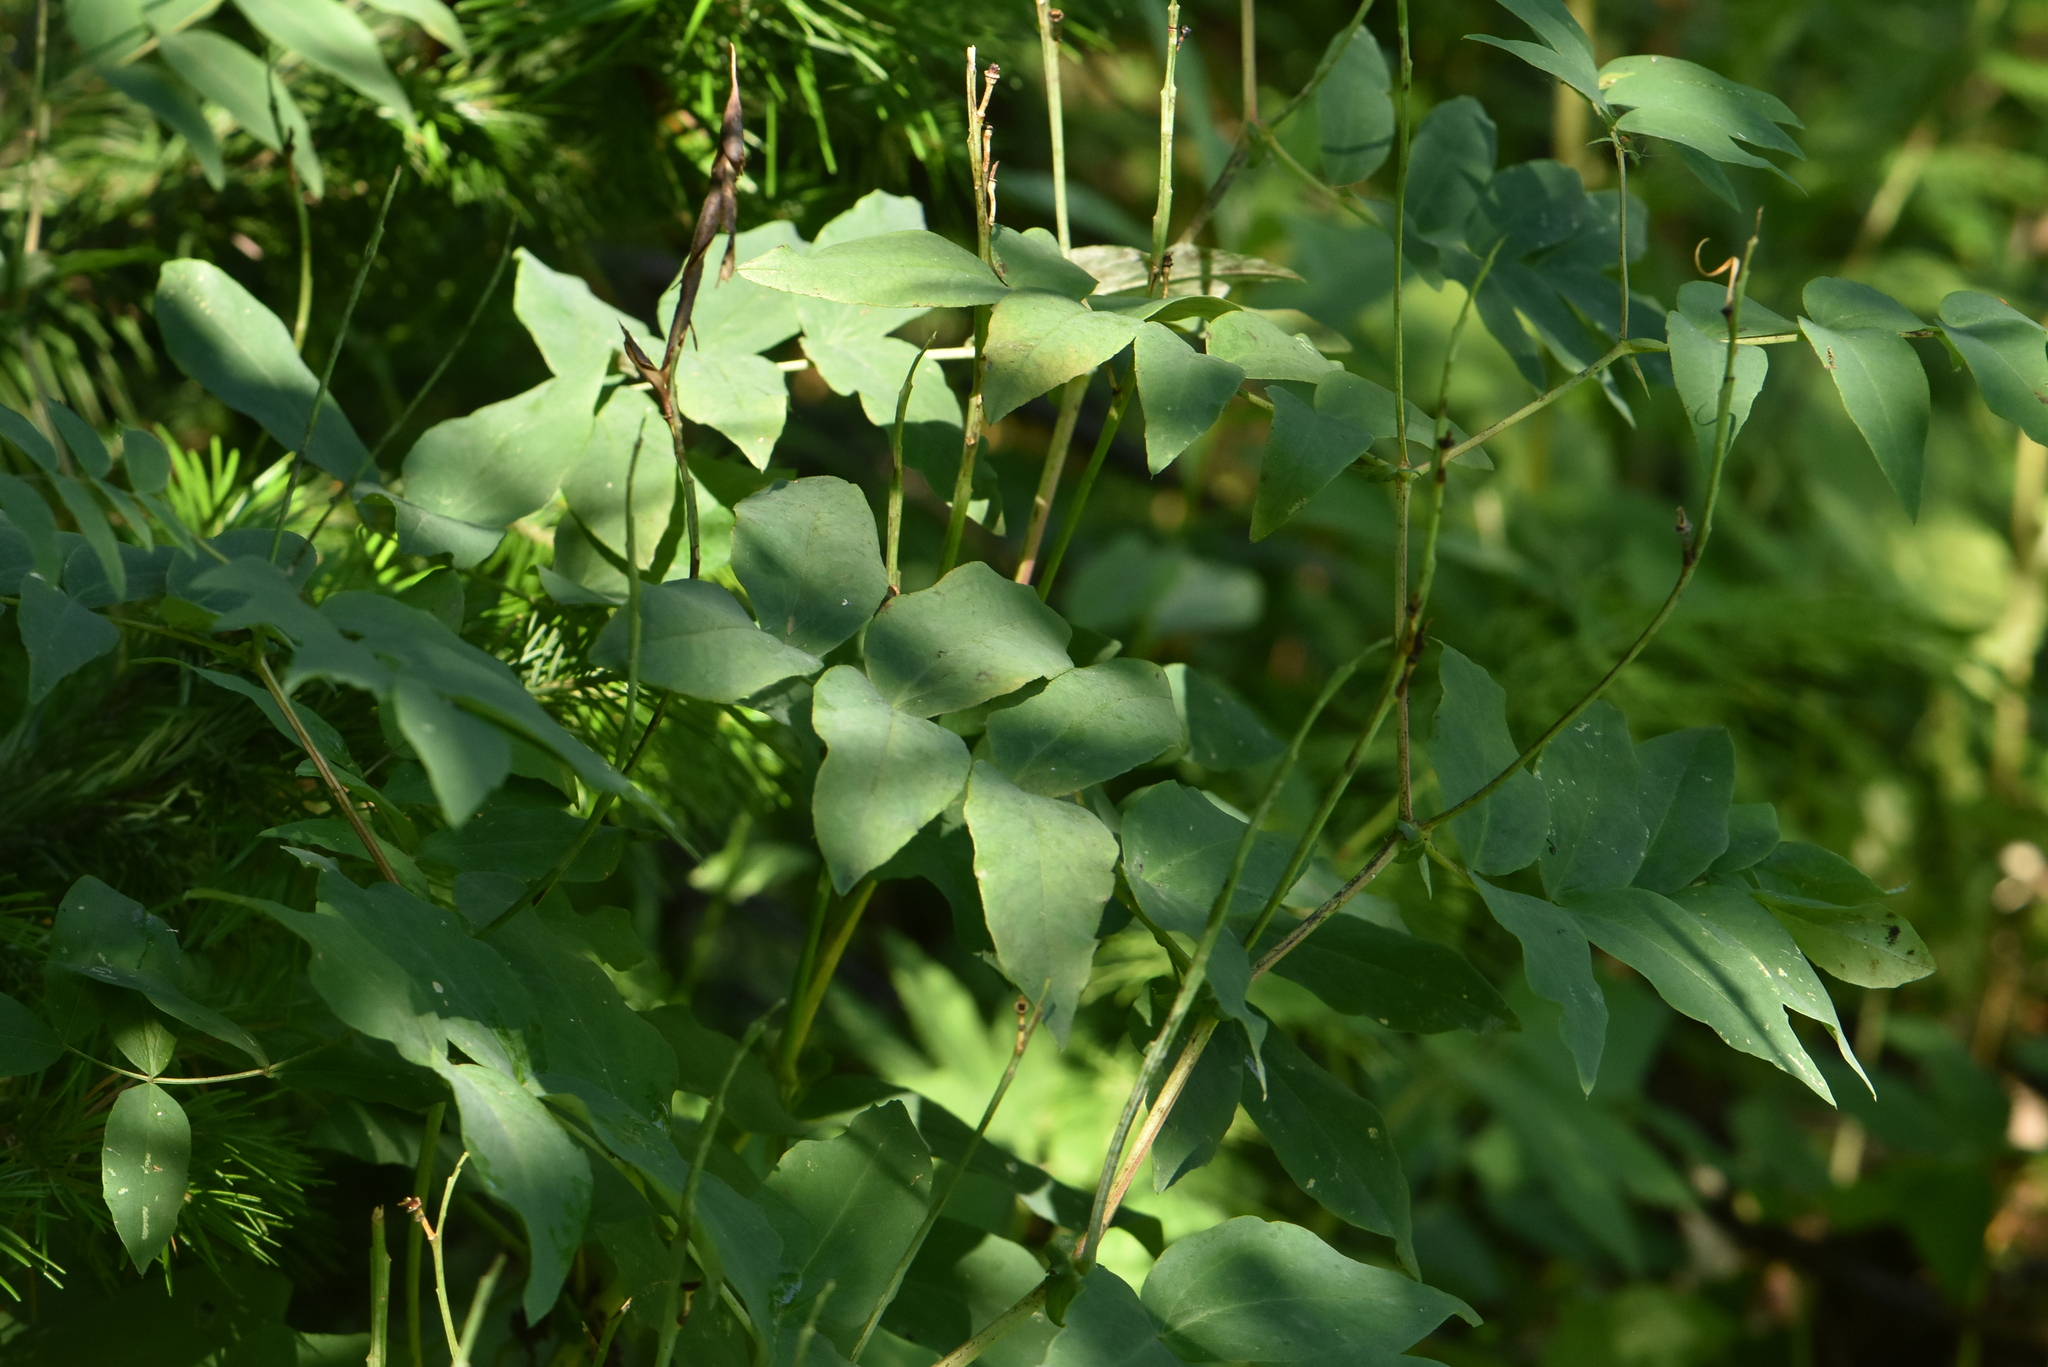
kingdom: Plantae
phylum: Tracheophyta
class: Magnoliopsida
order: Fabales
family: Fabaceae
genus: Lathyrus
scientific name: Lathyrus gmelinii
